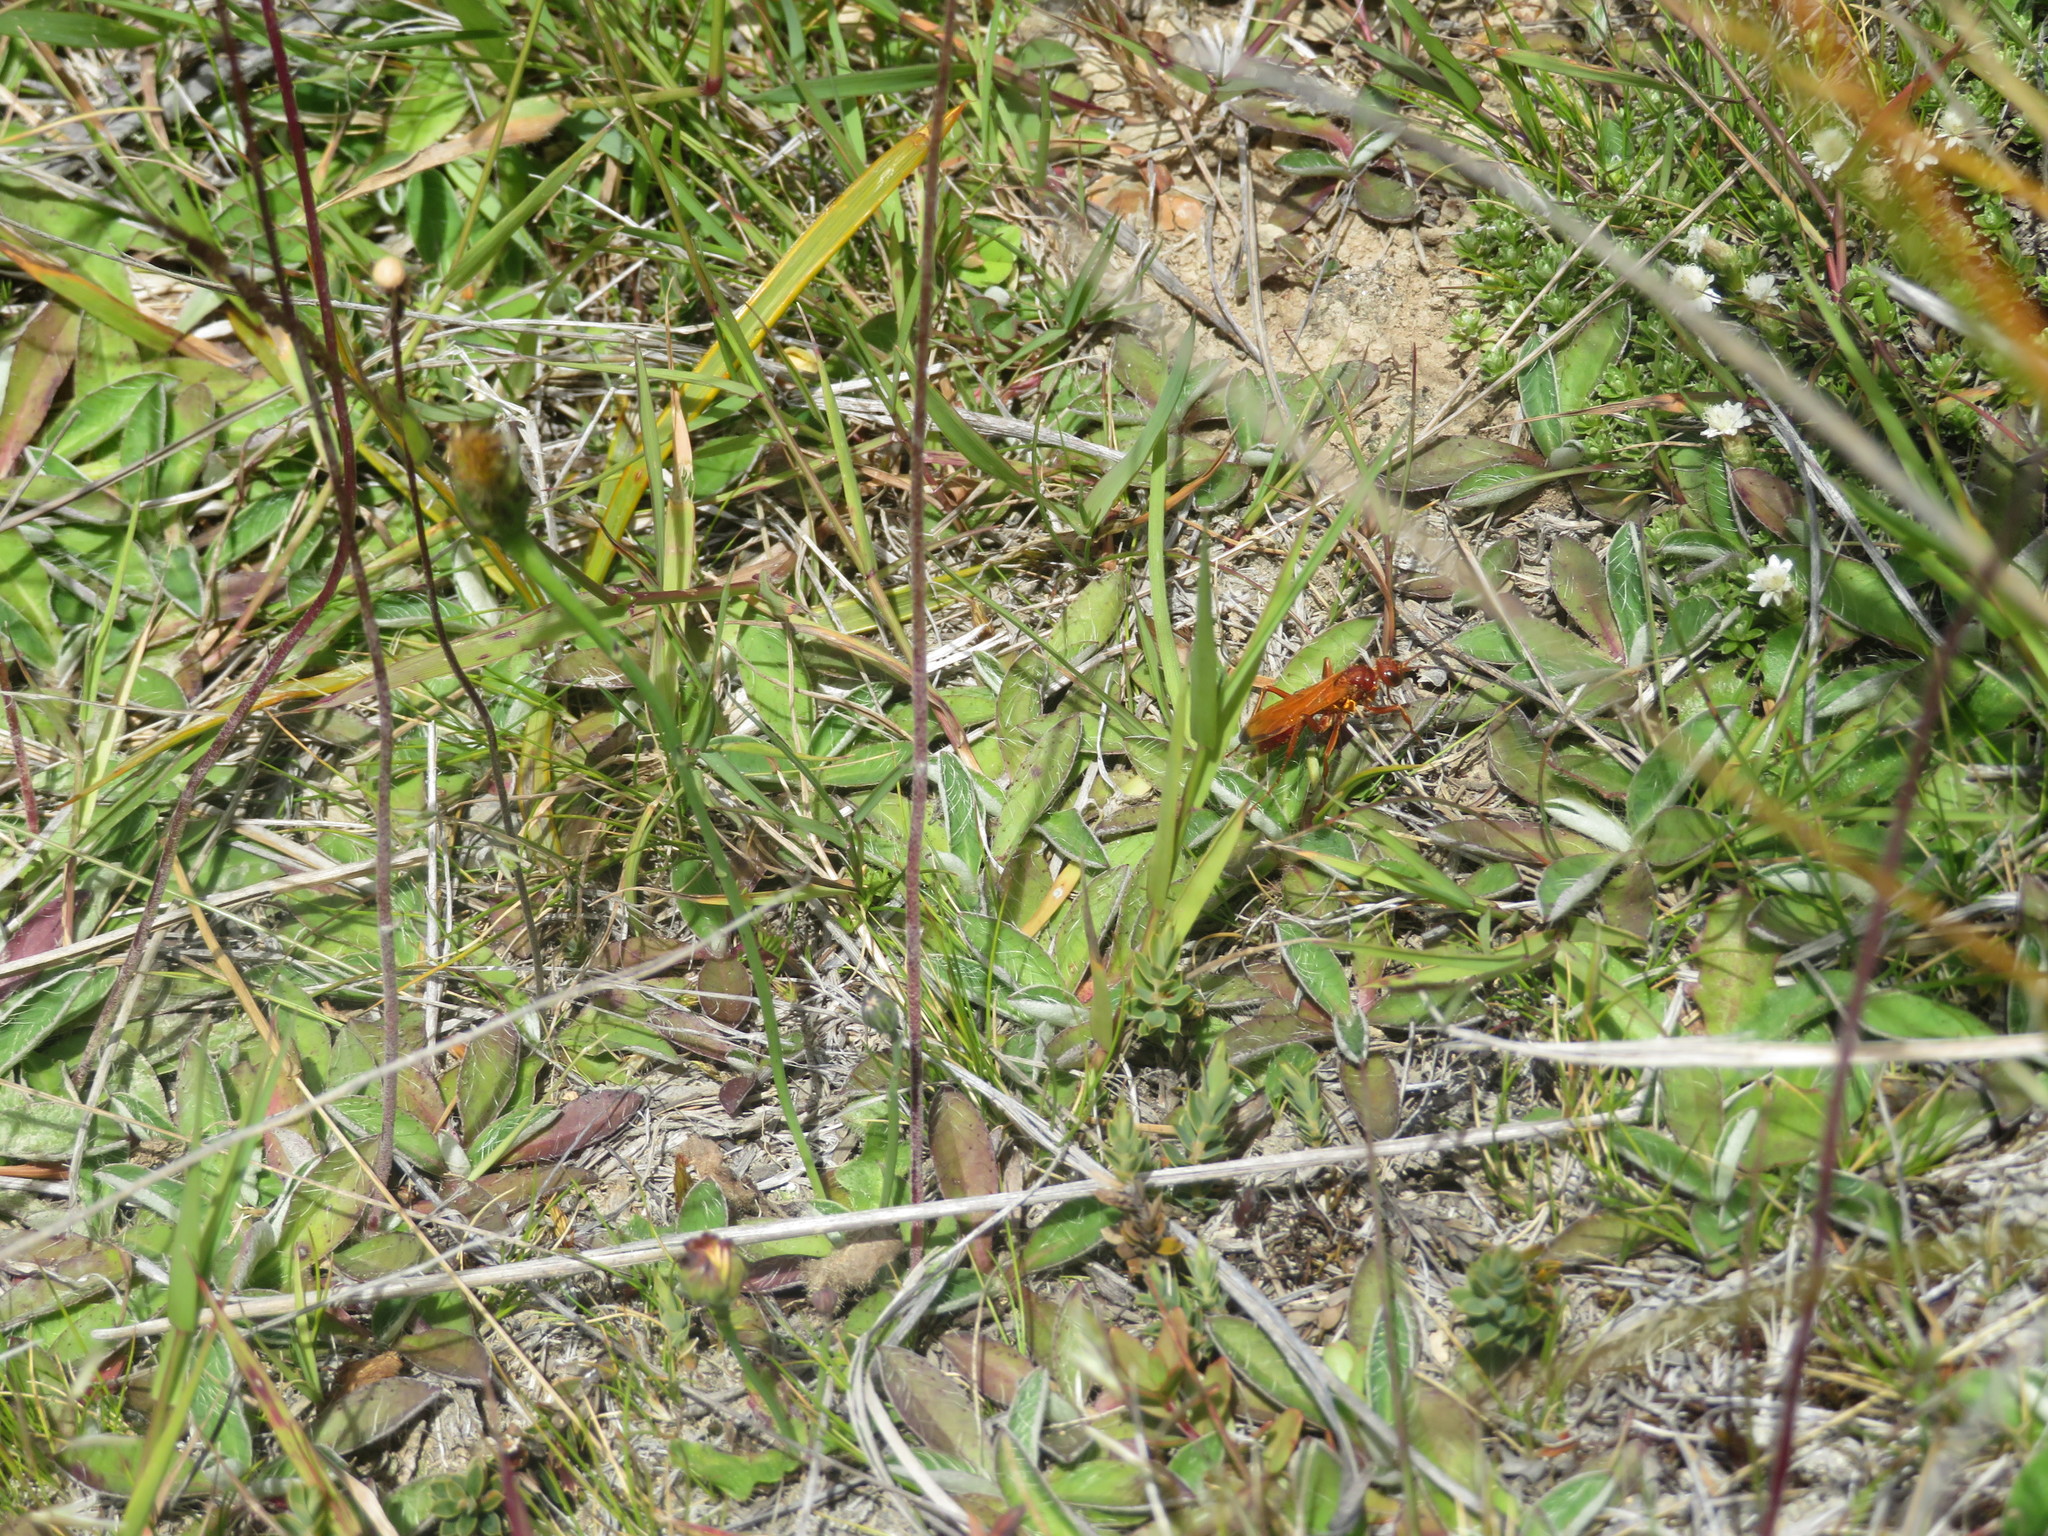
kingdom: Animalia
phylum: Arthropoda
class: Insecta
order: Hymenoptera
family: Pompilidae
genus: Sphictostethus
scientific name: Sphictostethus nitidus
